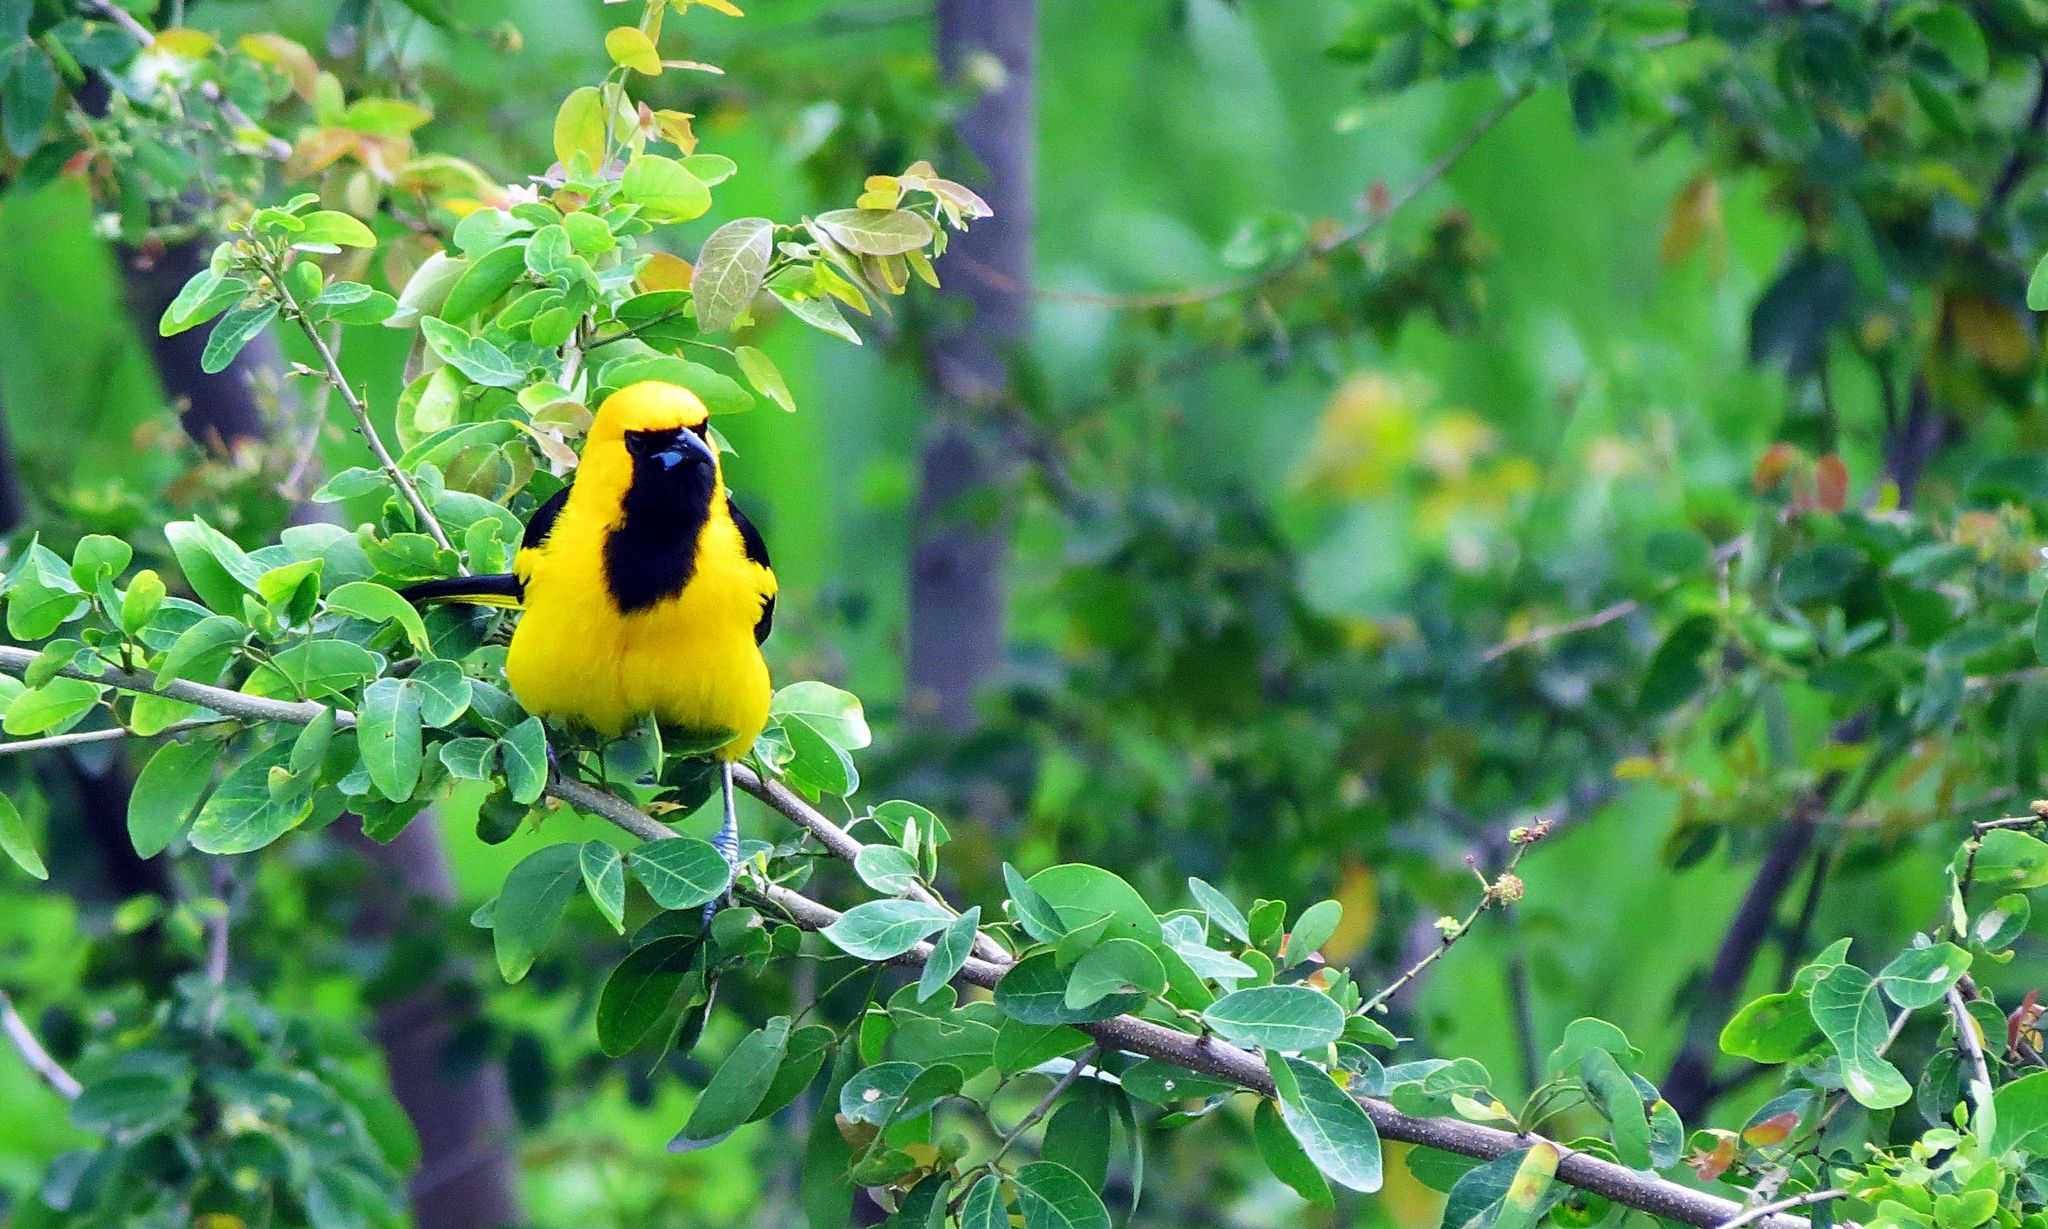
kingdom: Animalia
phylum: Chordata
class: Aves
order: Passeriformes
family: Icteridae
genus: Icterus
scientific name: Icterus mesomelas
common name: Yellow-tailed oriole
